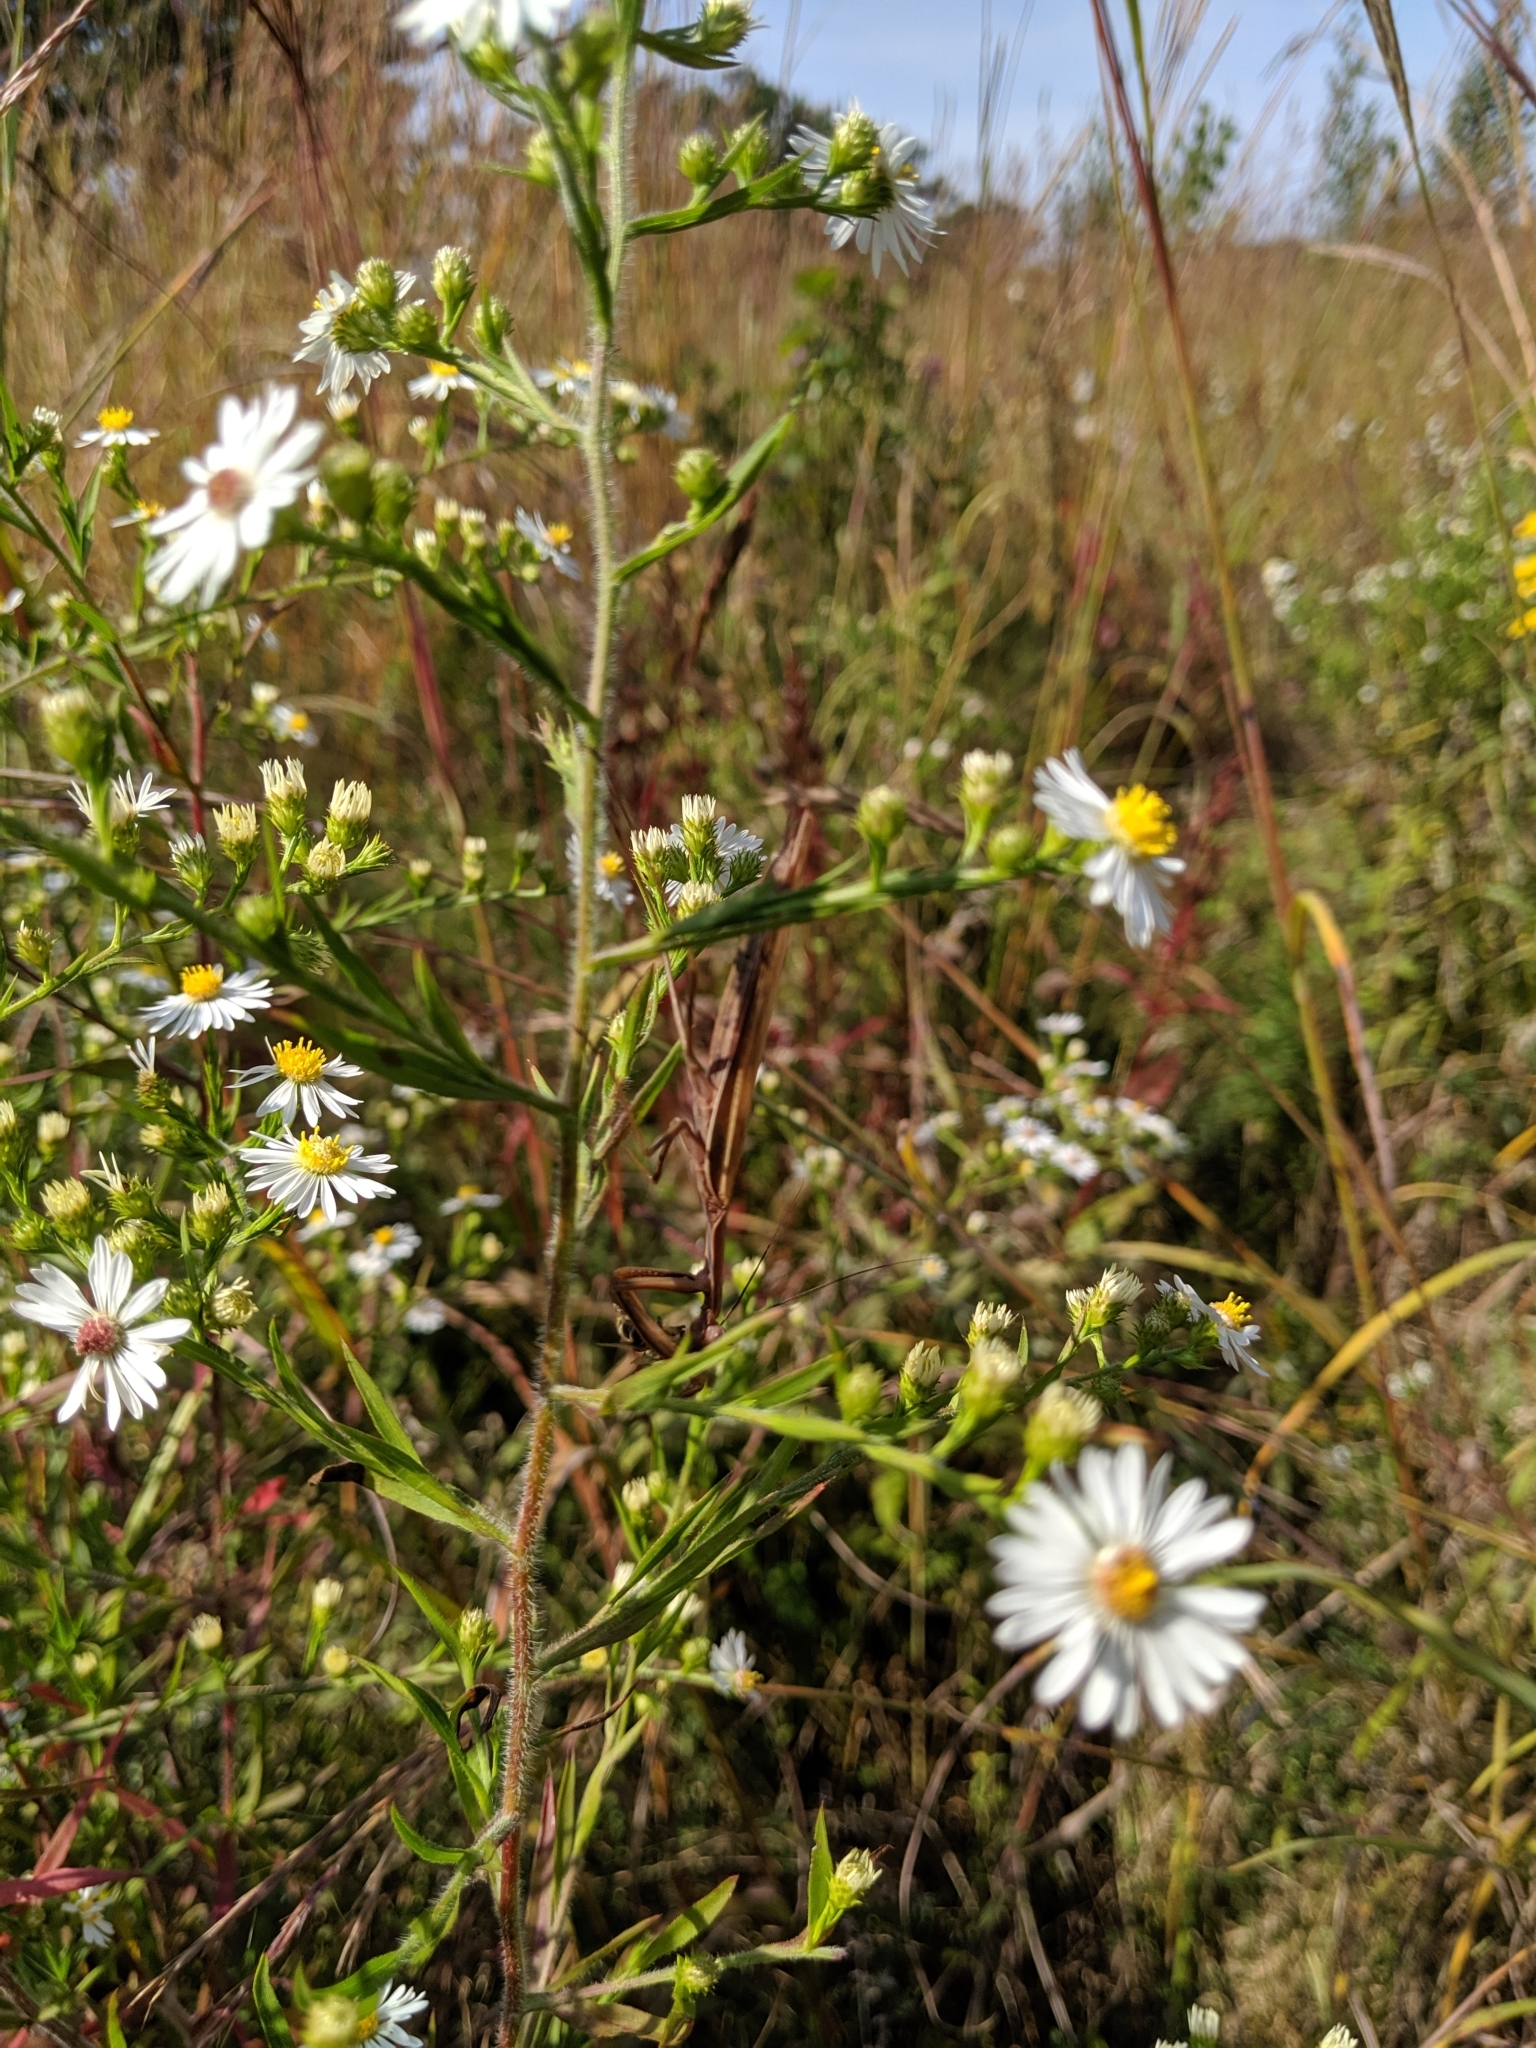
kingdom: Animalia
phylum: Arthropoda
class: Insecta
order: Mantodea
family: Mantidae
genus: Mantis
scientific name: Mantis religiosa
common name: Praying mantis
